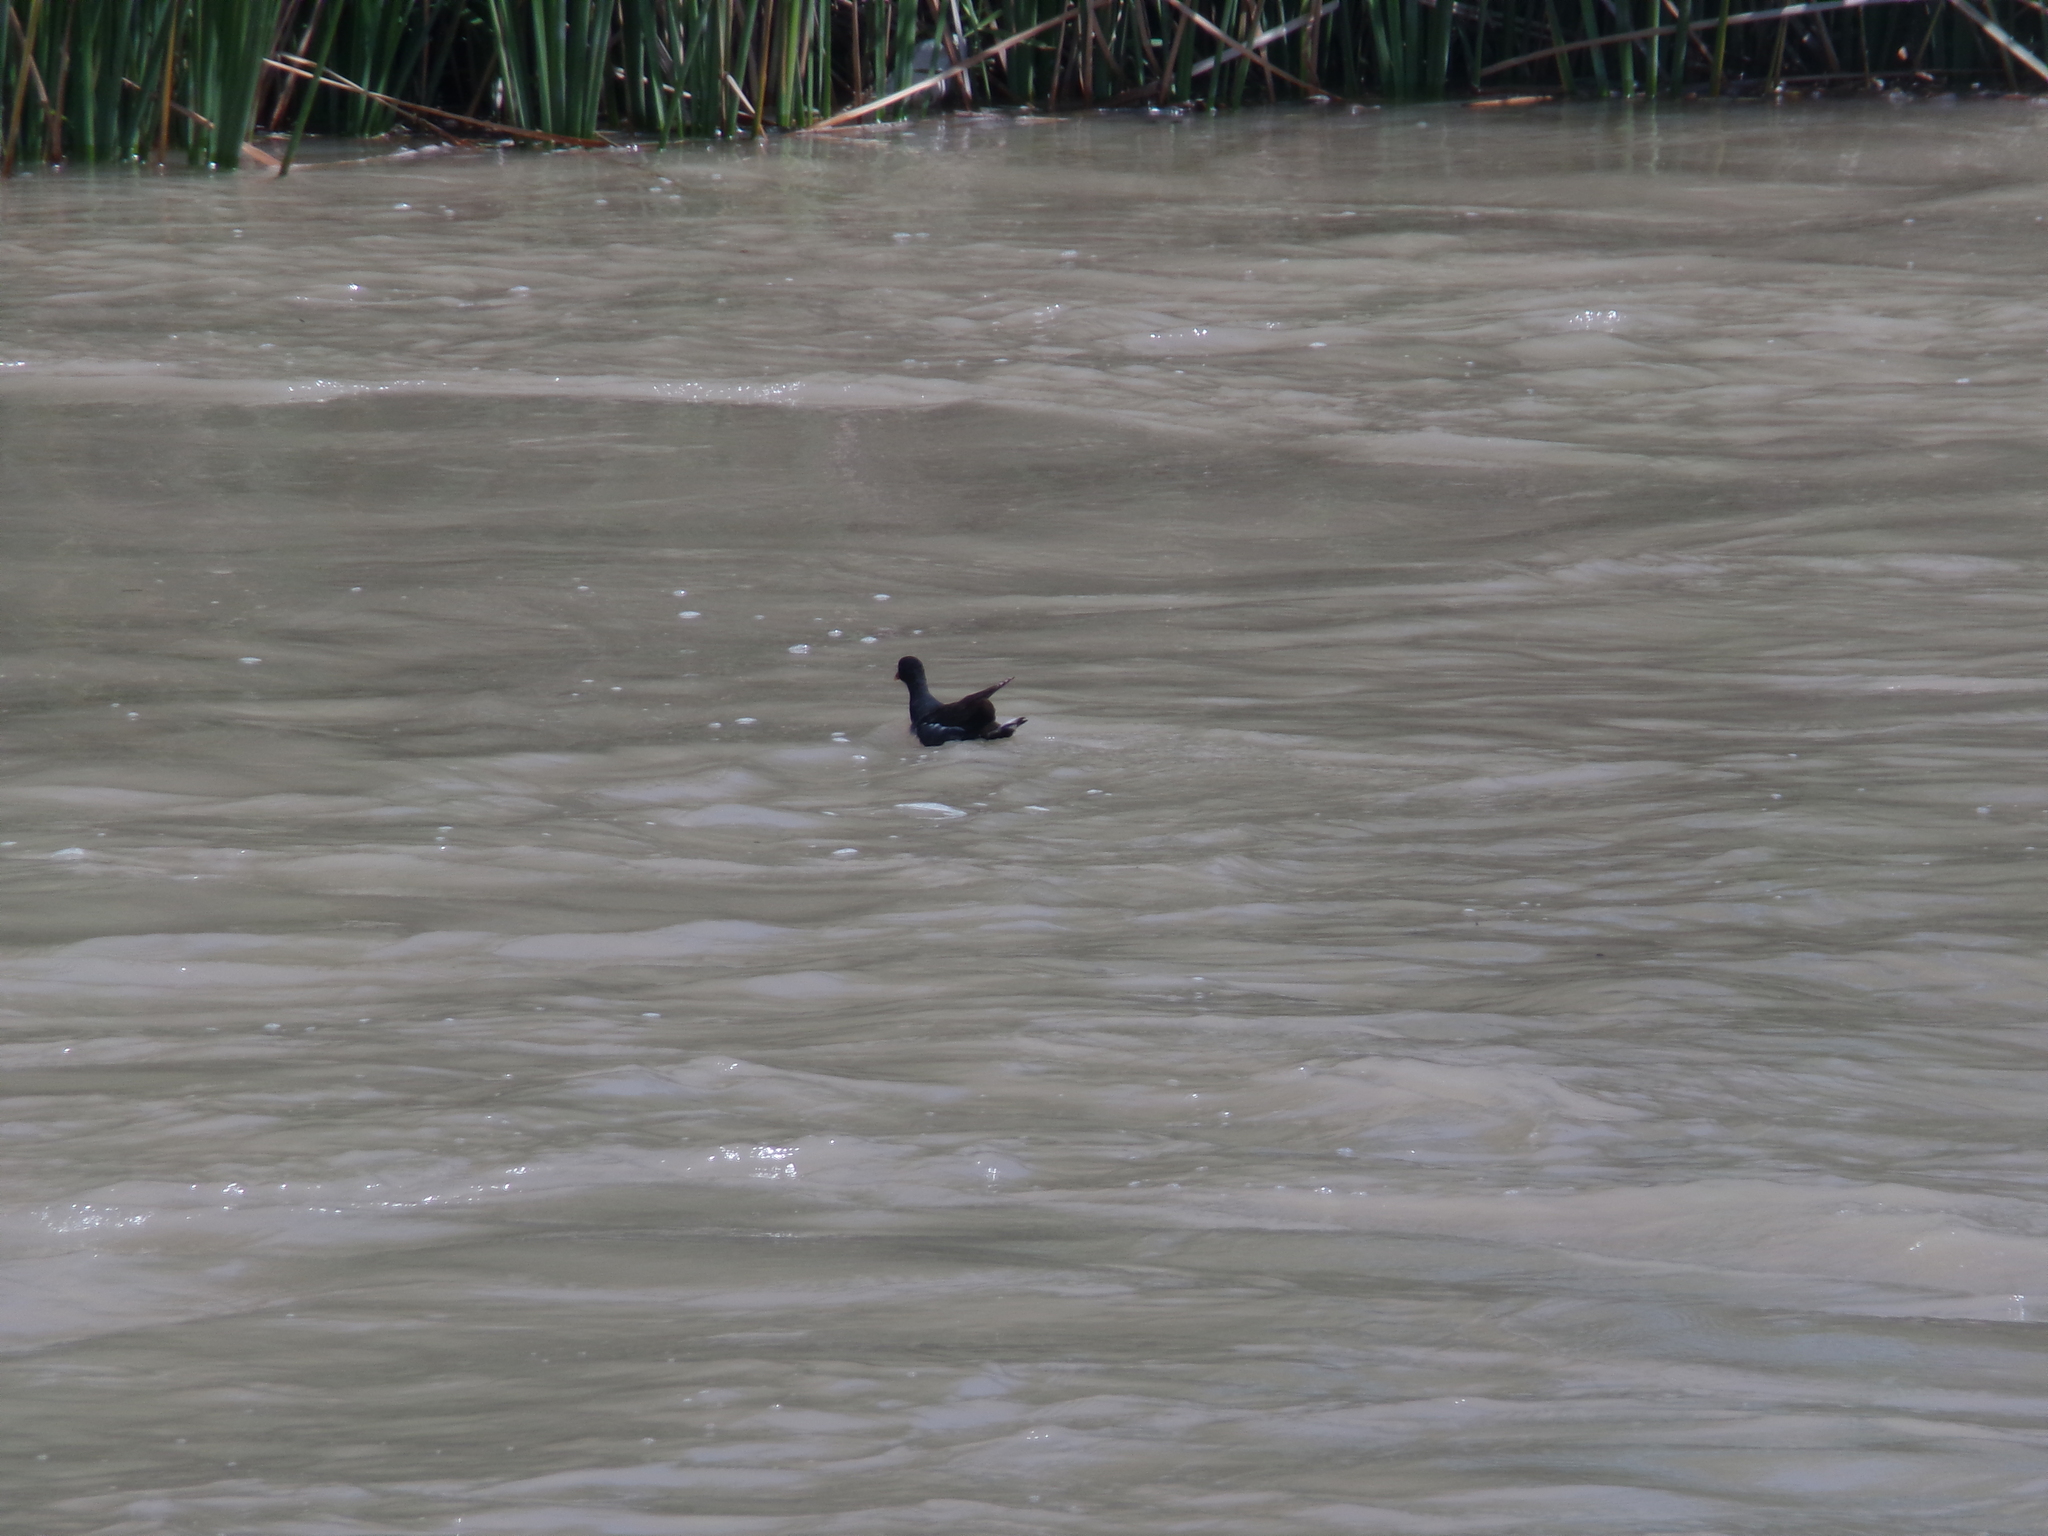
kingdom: Animalia
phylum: Chordata
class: Aves
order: Gruiformes
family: Rallidae
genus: Gallinula
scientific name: Gallinula chloropus
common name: Common moorhen
